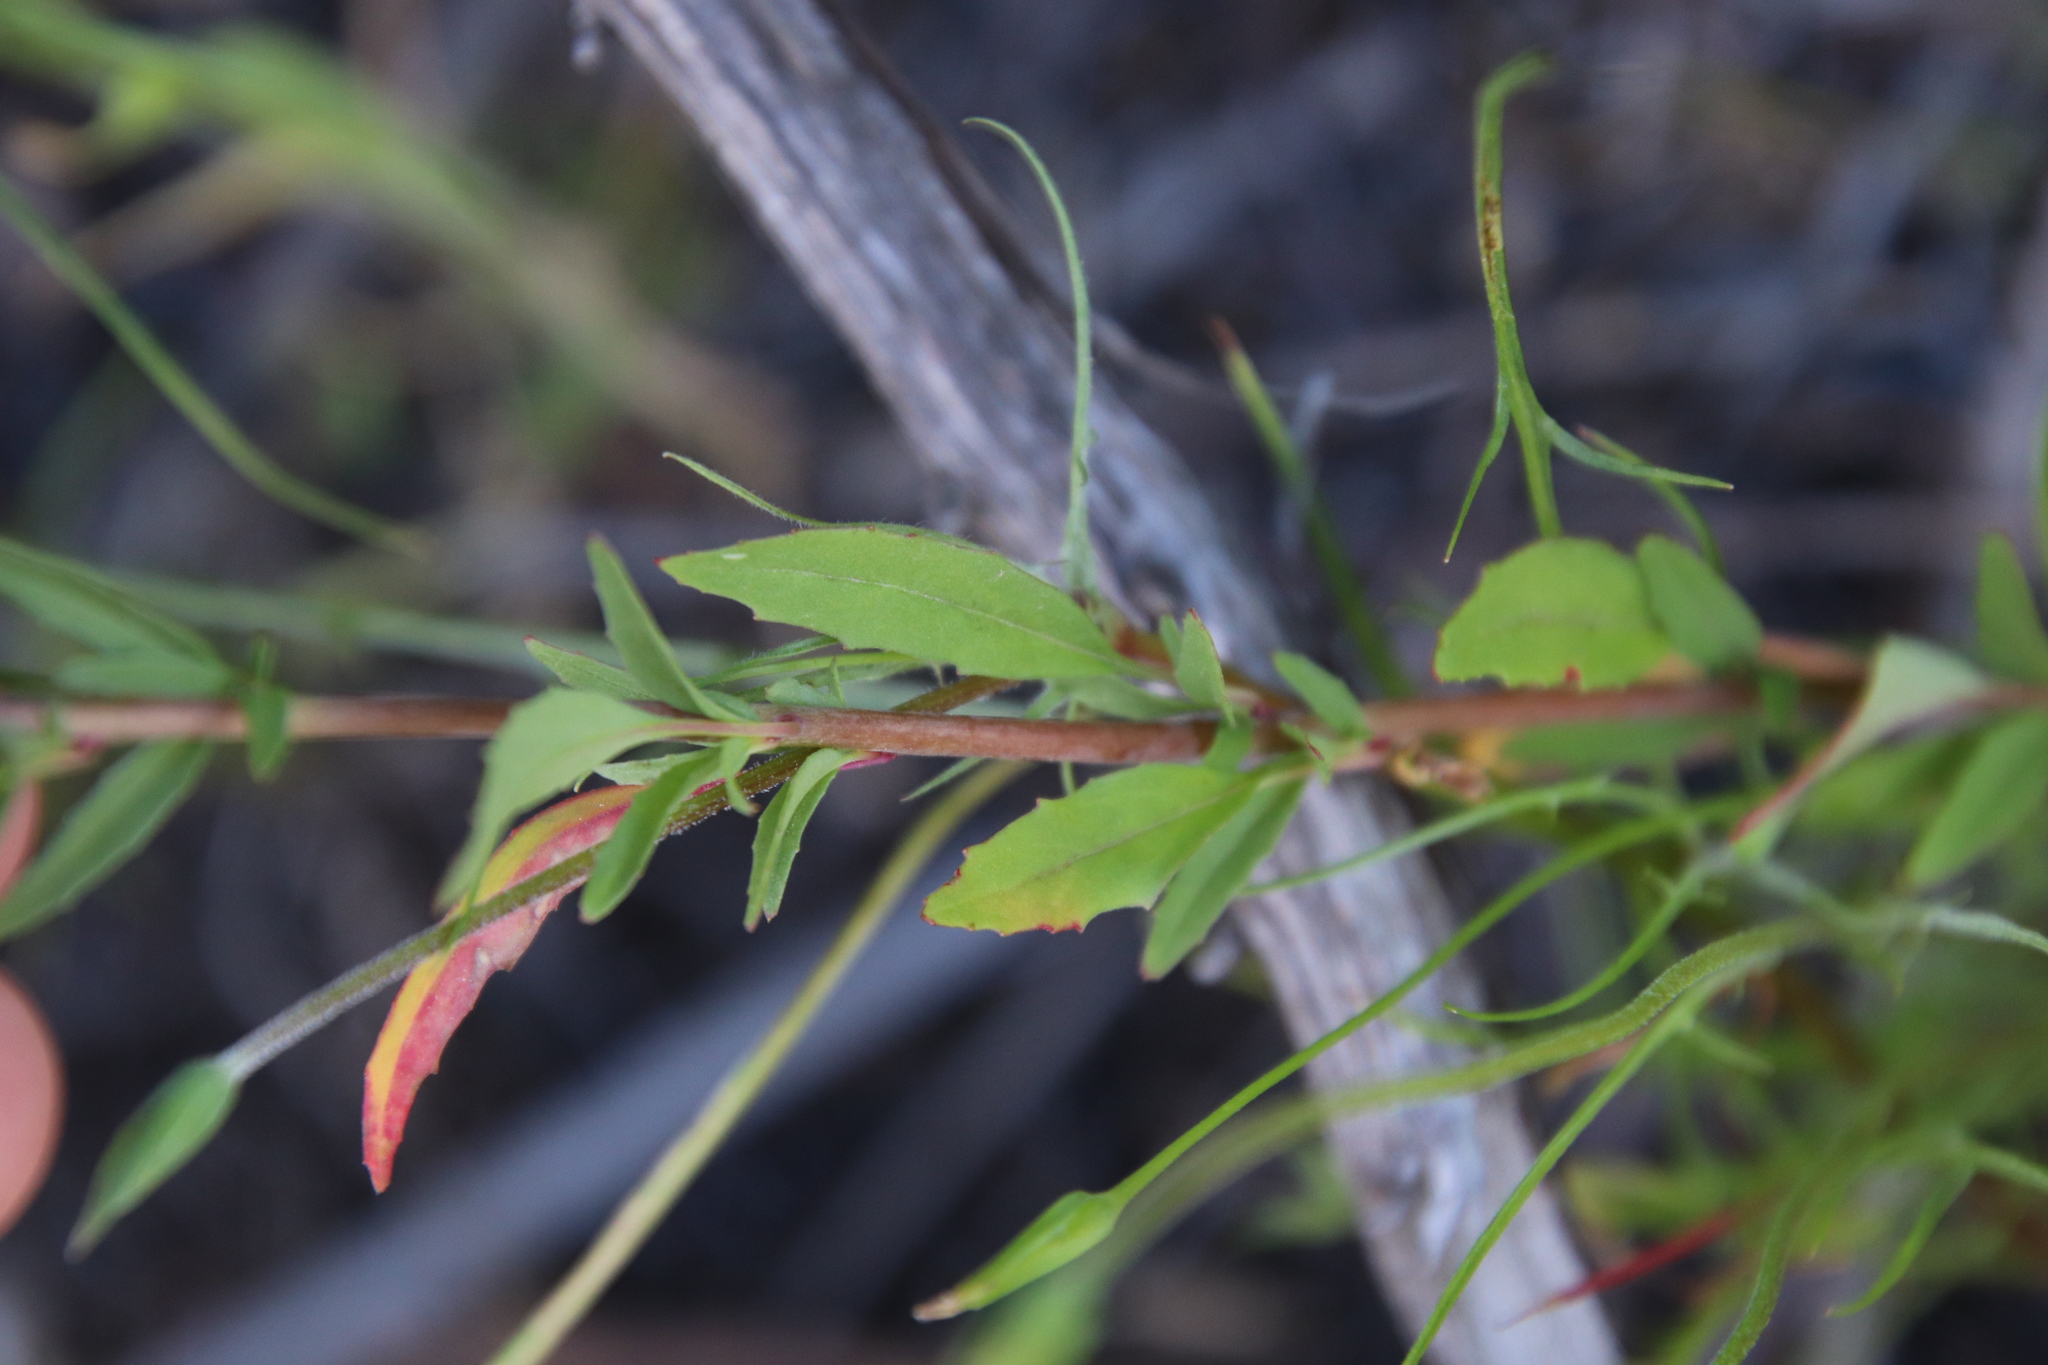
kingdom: Plantae
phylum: Tracheophyta
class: Magnoliopsida
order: Myrtales
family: Onagraceae
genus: Clarkia
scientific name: Clarkia delicata
